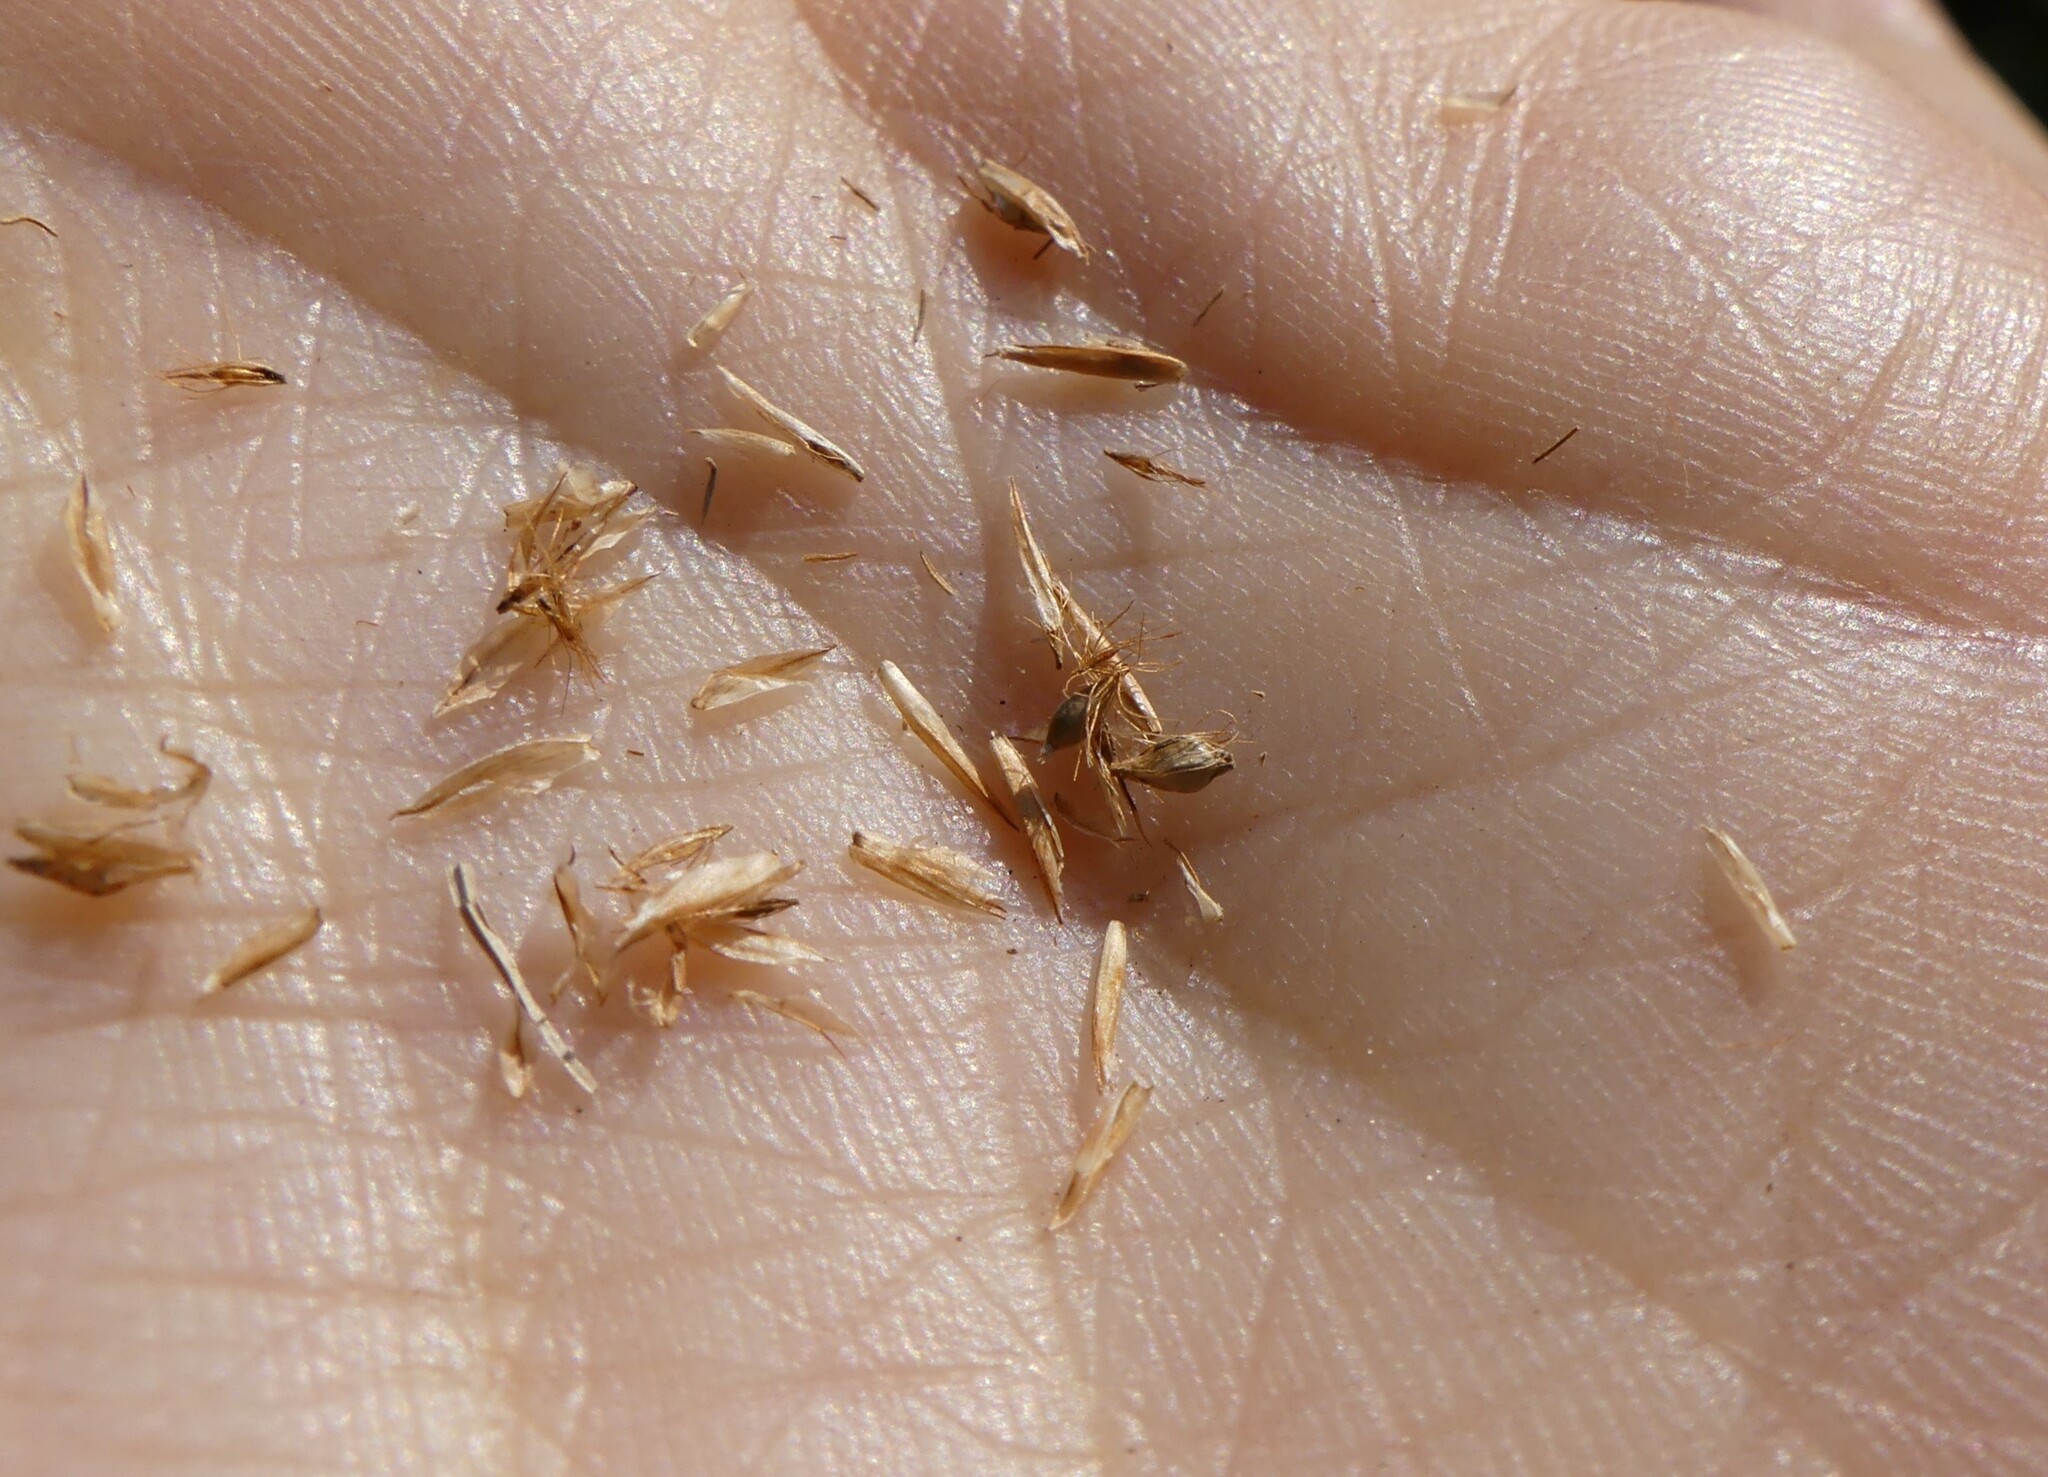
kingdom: Plantae
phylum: Tracheophyta
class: Liliopsida
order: Poales
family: Cyperaceae
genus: Rhynchospora
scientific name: Rhynchospora alba
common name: White beak-sedge
